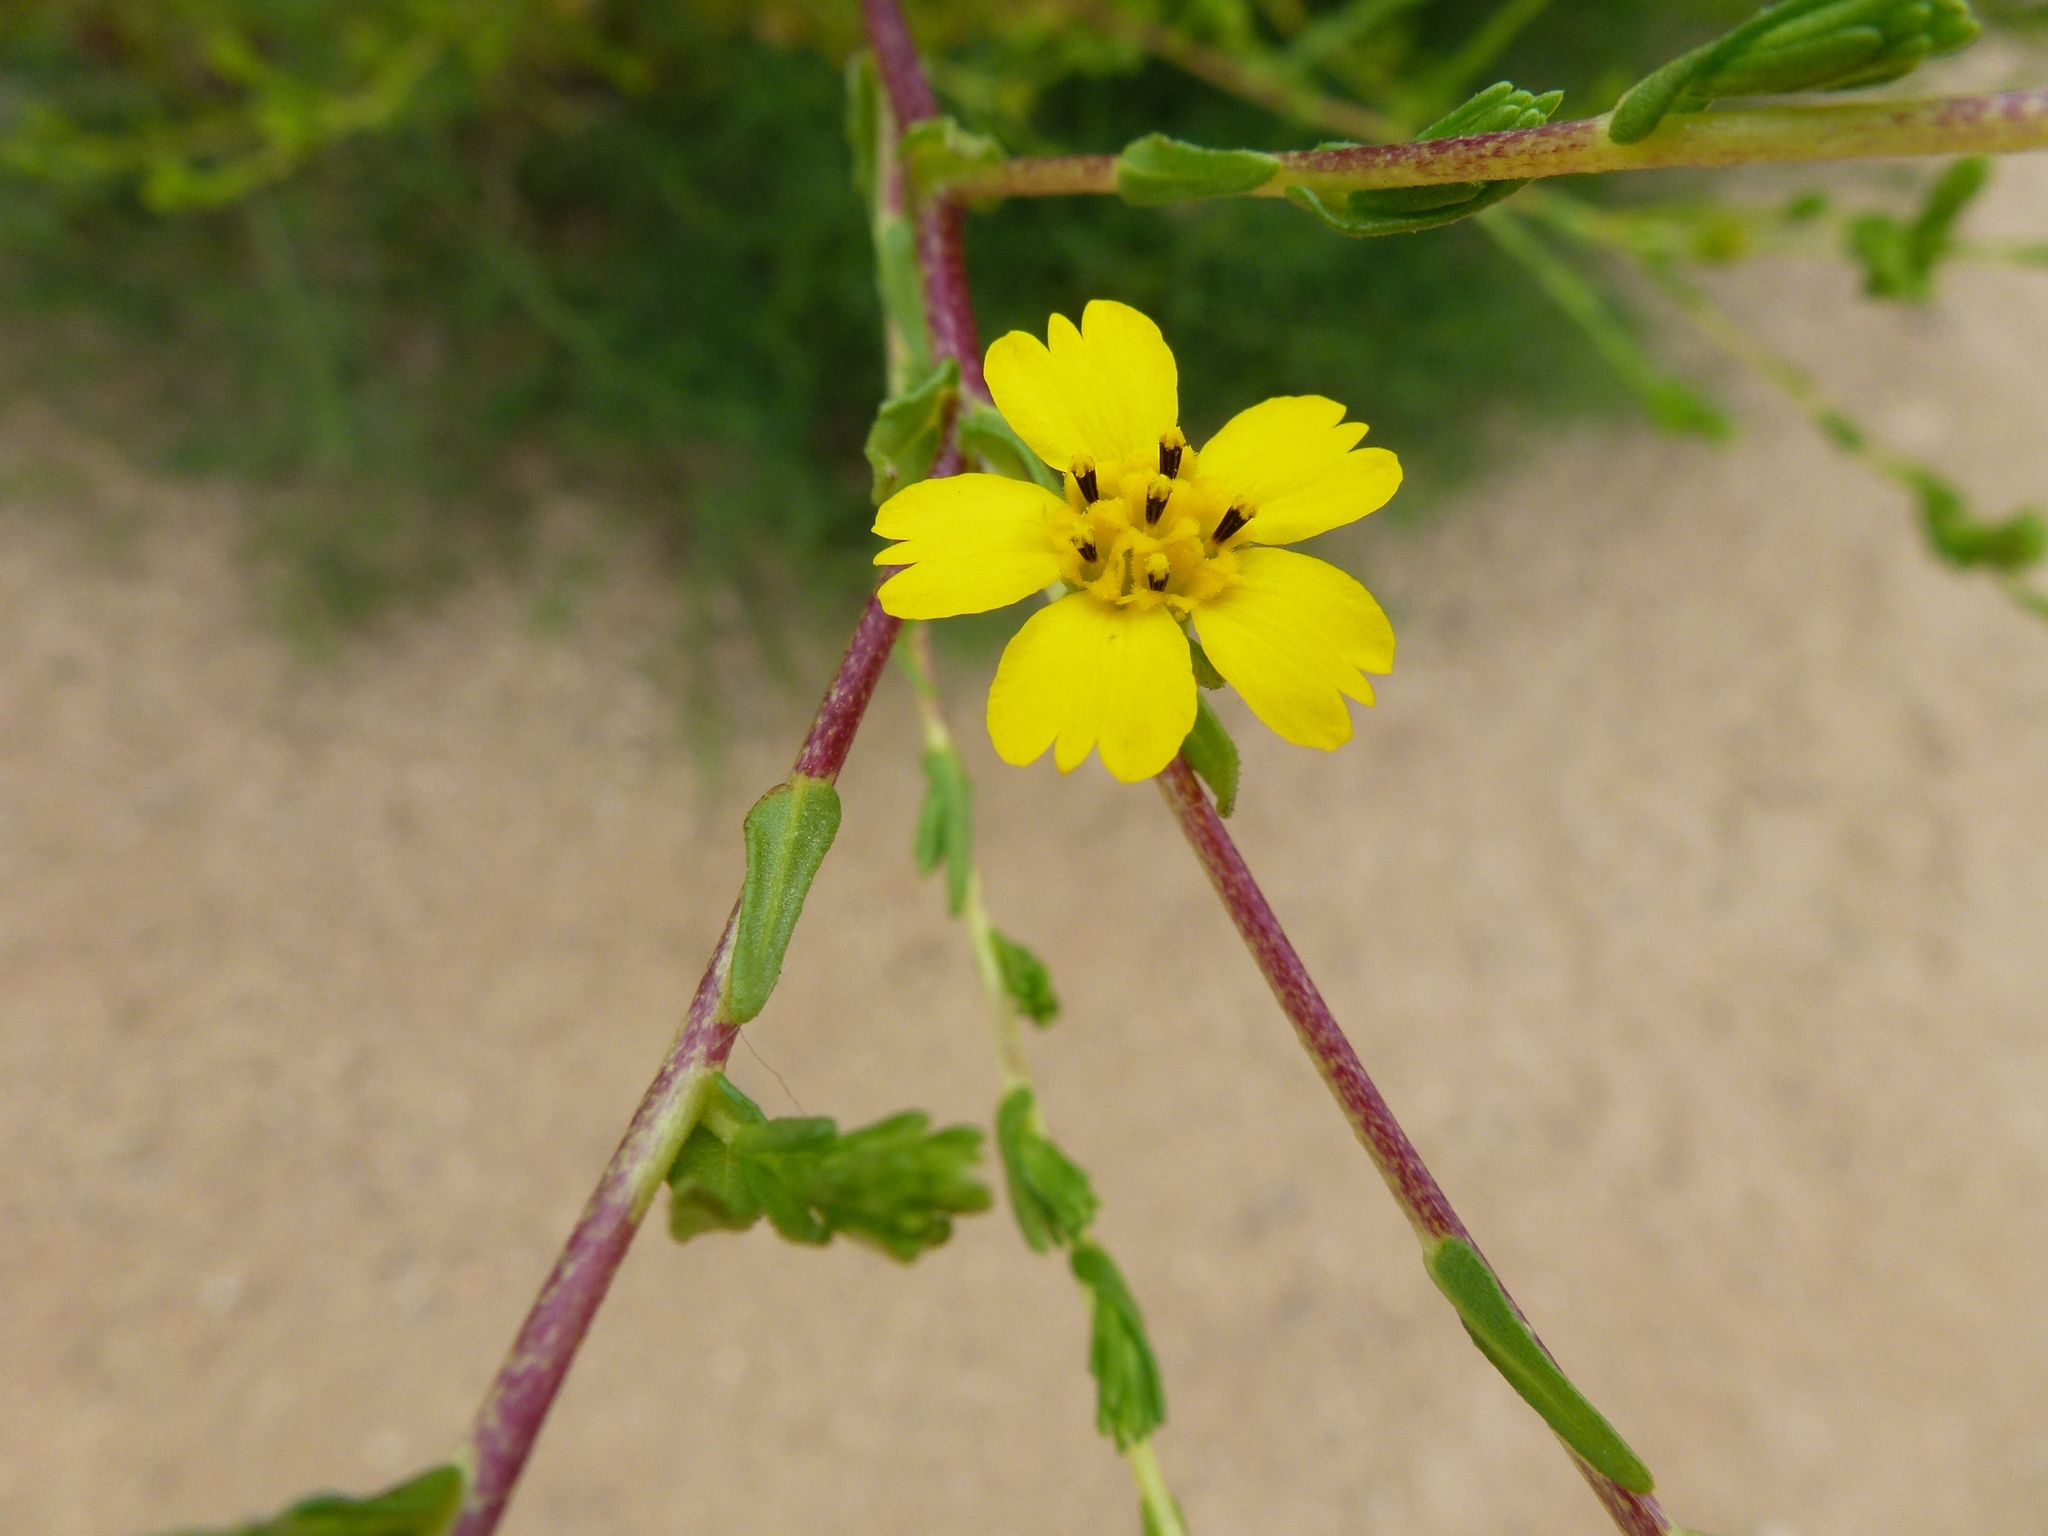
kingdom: Plantae
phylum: Tracheophyta
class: Magnoliopsida
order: Asterales
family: Asteraceae
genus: Deinandra
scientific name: Deinandra fasciculata
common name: Clustered tarweed
